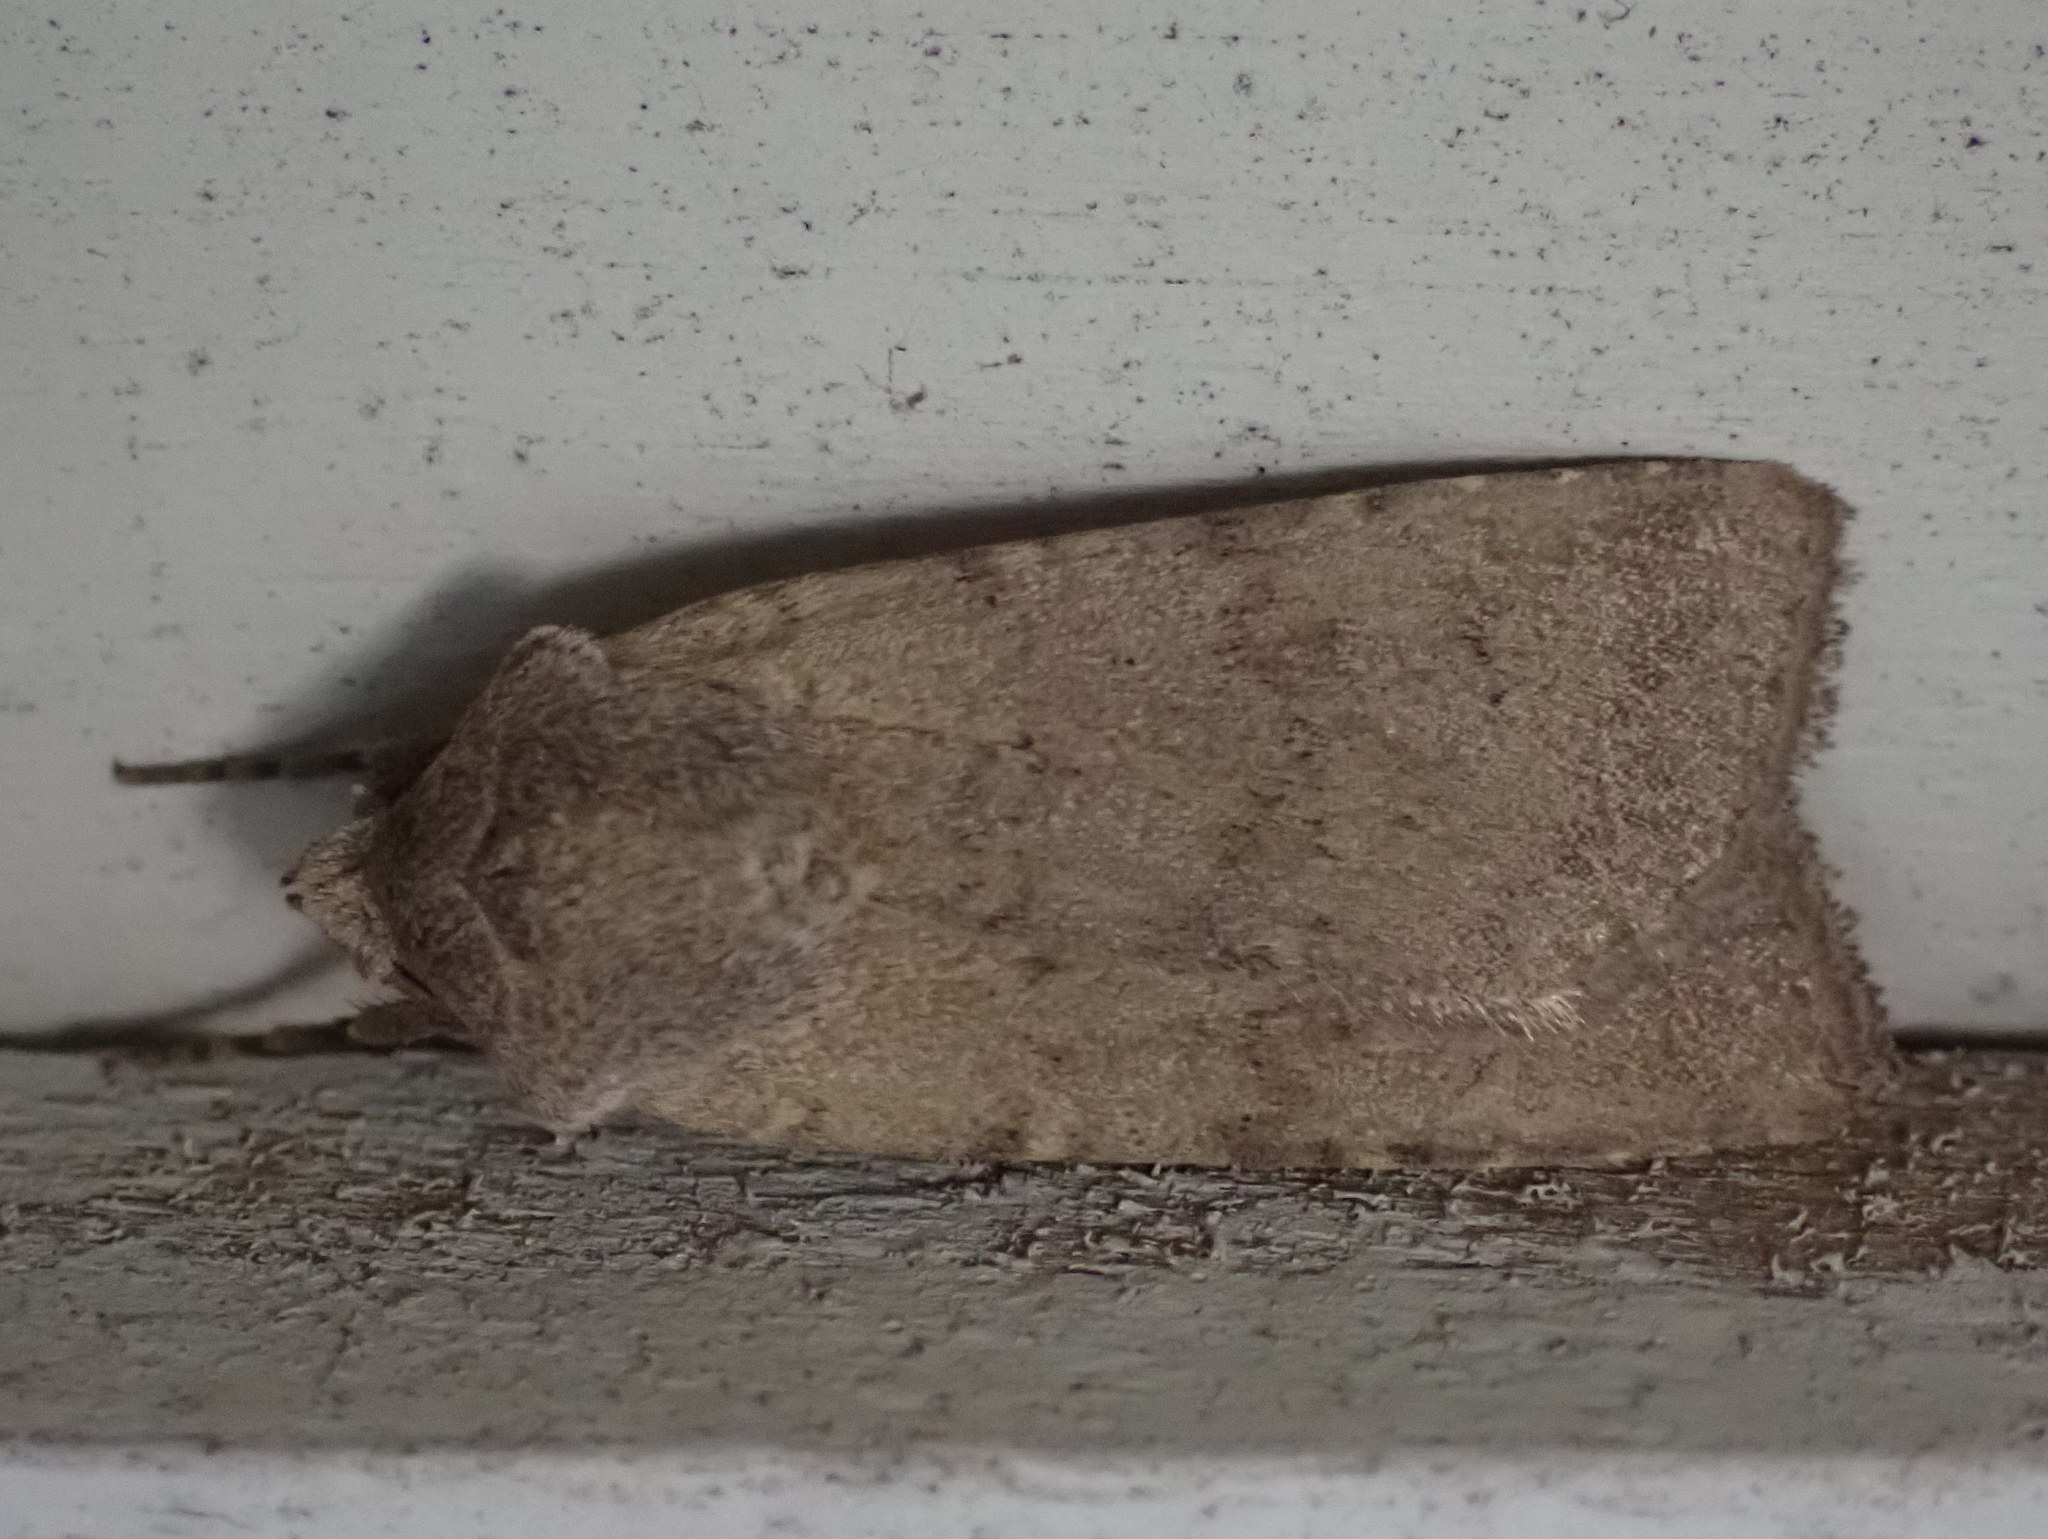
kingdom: Animalia
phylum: Arthropoda
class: Insecta
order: Lepidoptera
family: Noctuidae
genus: Euxoa
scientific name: Euxoa messoria
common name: Darksided cutworm
